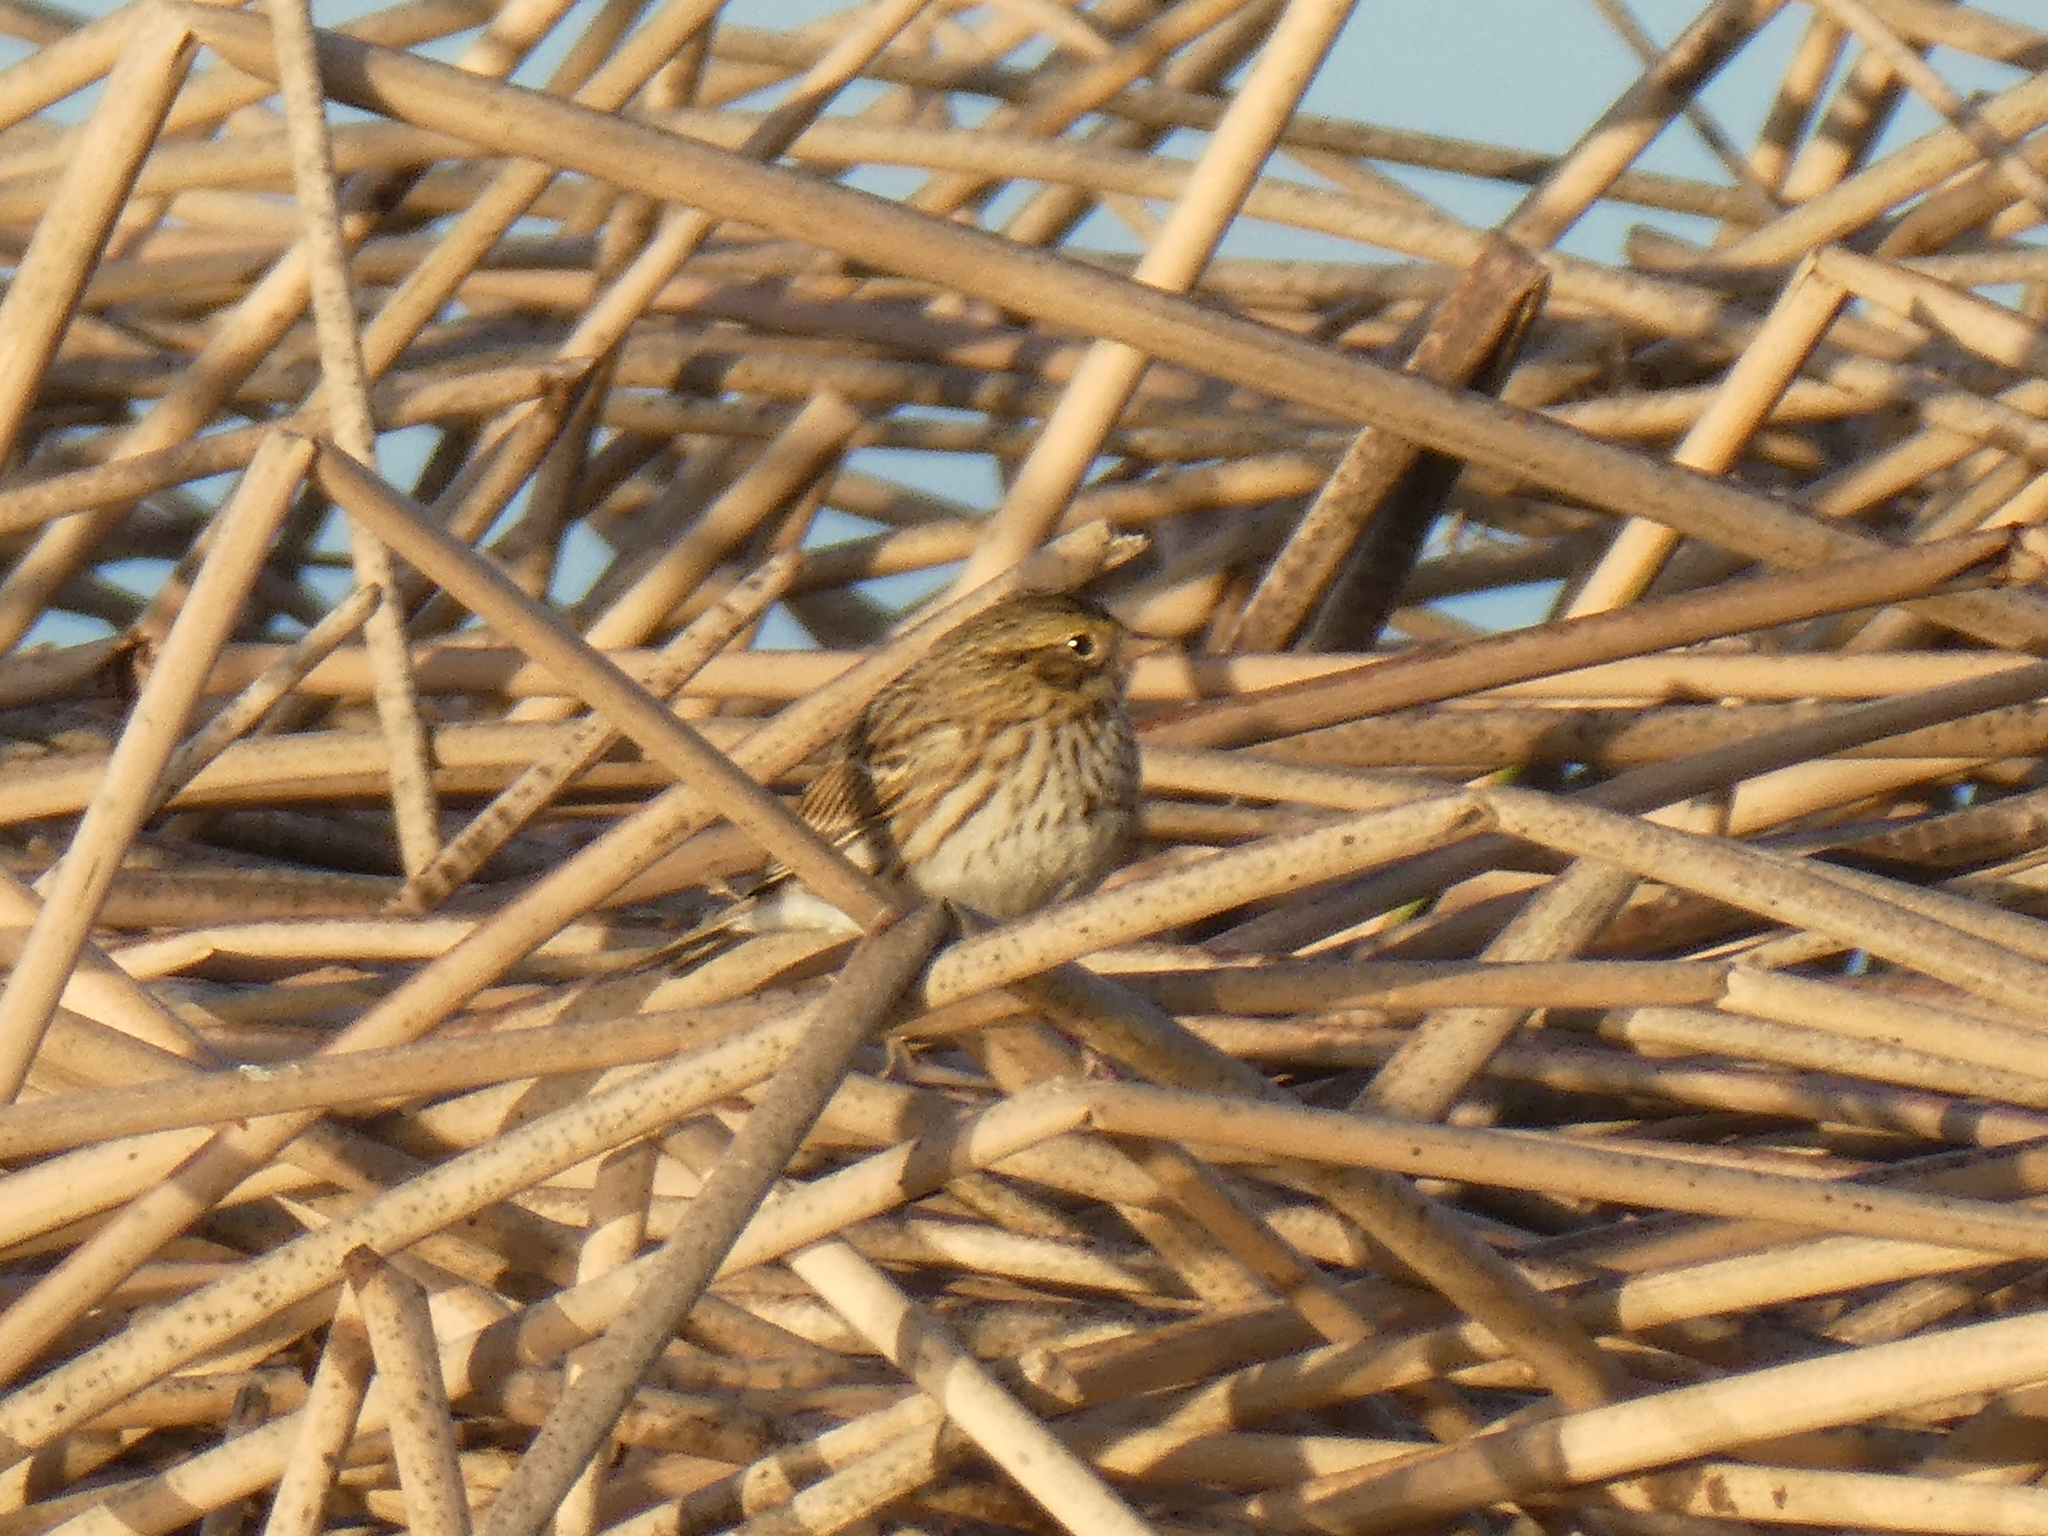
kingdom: Animalia
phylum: Chordata
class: Aves
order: Passeriformes
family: Passerellidae
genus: Passerculus
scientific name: Passerculus sandwichensis
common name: Savannah sparrow
